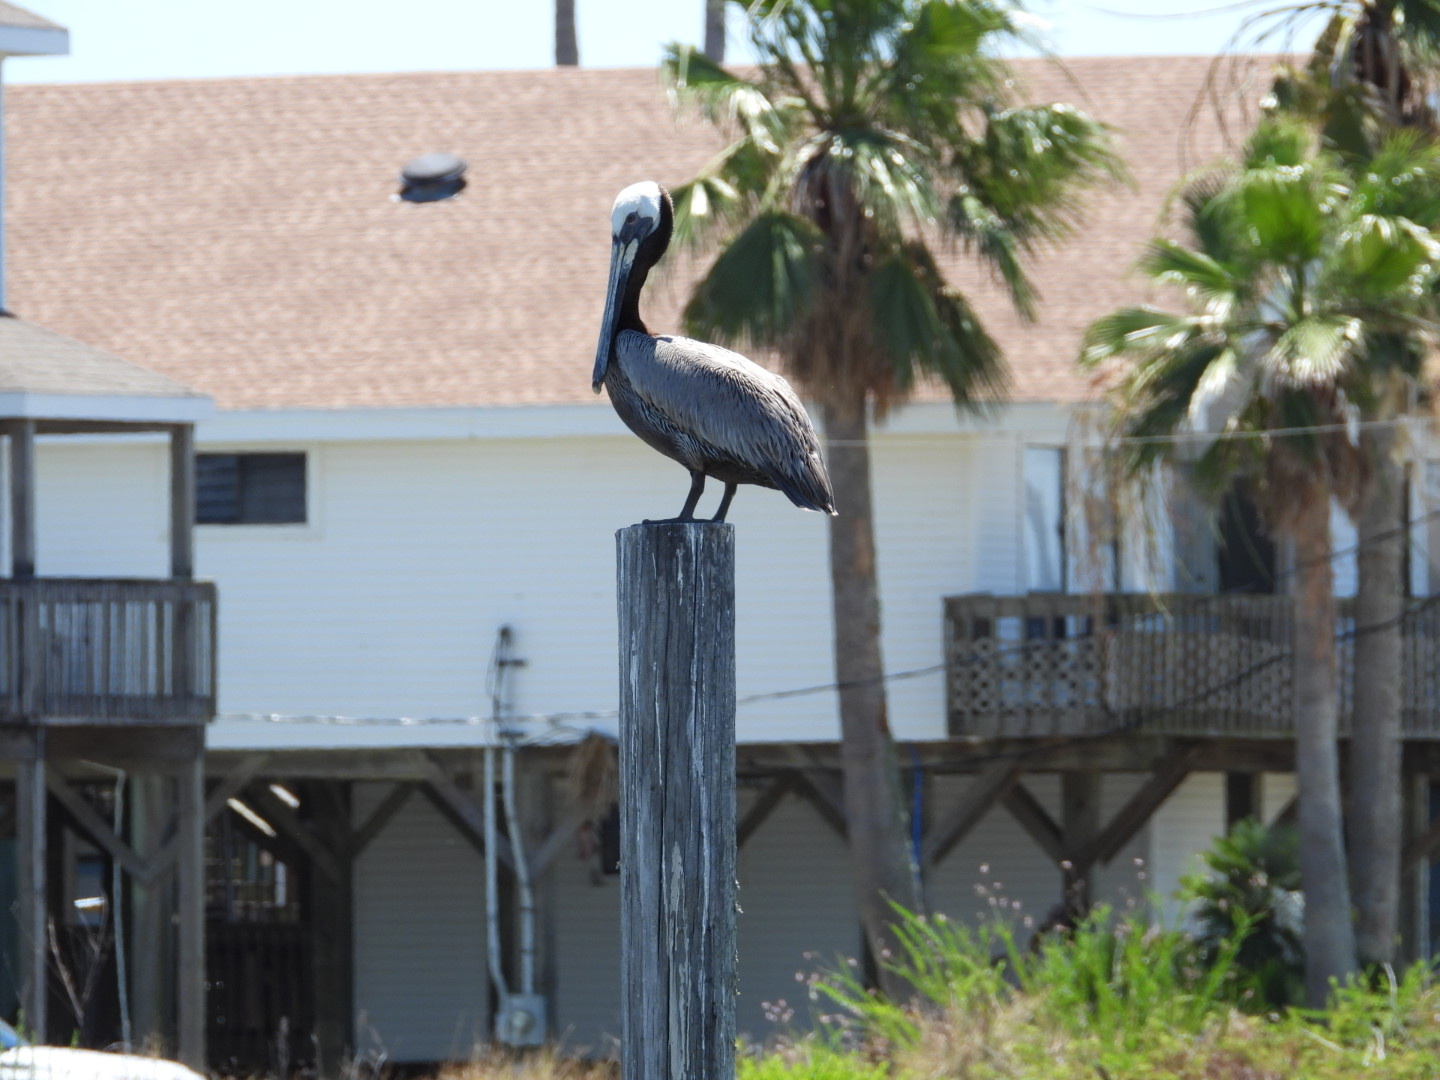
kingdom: Animalia
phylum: Chordata
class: Aves
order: Pelecaniformes
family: Pelecanidae
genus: Pelecanus
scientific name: Pelecanus occidentalis
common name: Brown pelican
